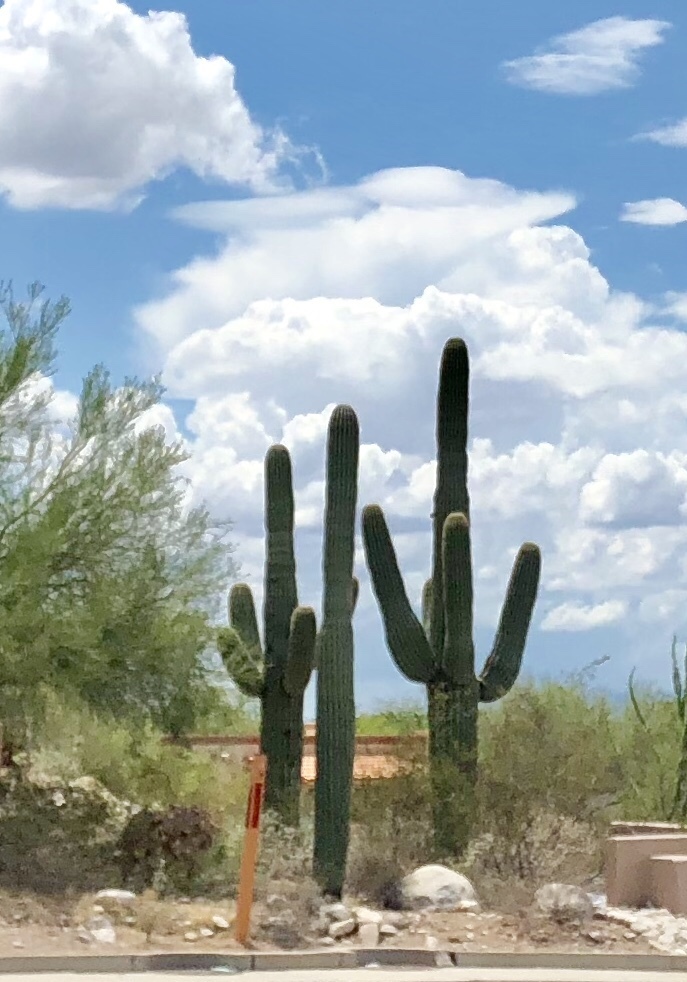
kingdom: Plantae
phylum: Tracheophyta
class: Magnoliopsida
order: Caryophyllales
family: Cactaceae
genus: Carnegiea
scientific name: Carnegiea gigantea
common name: Saguaro
